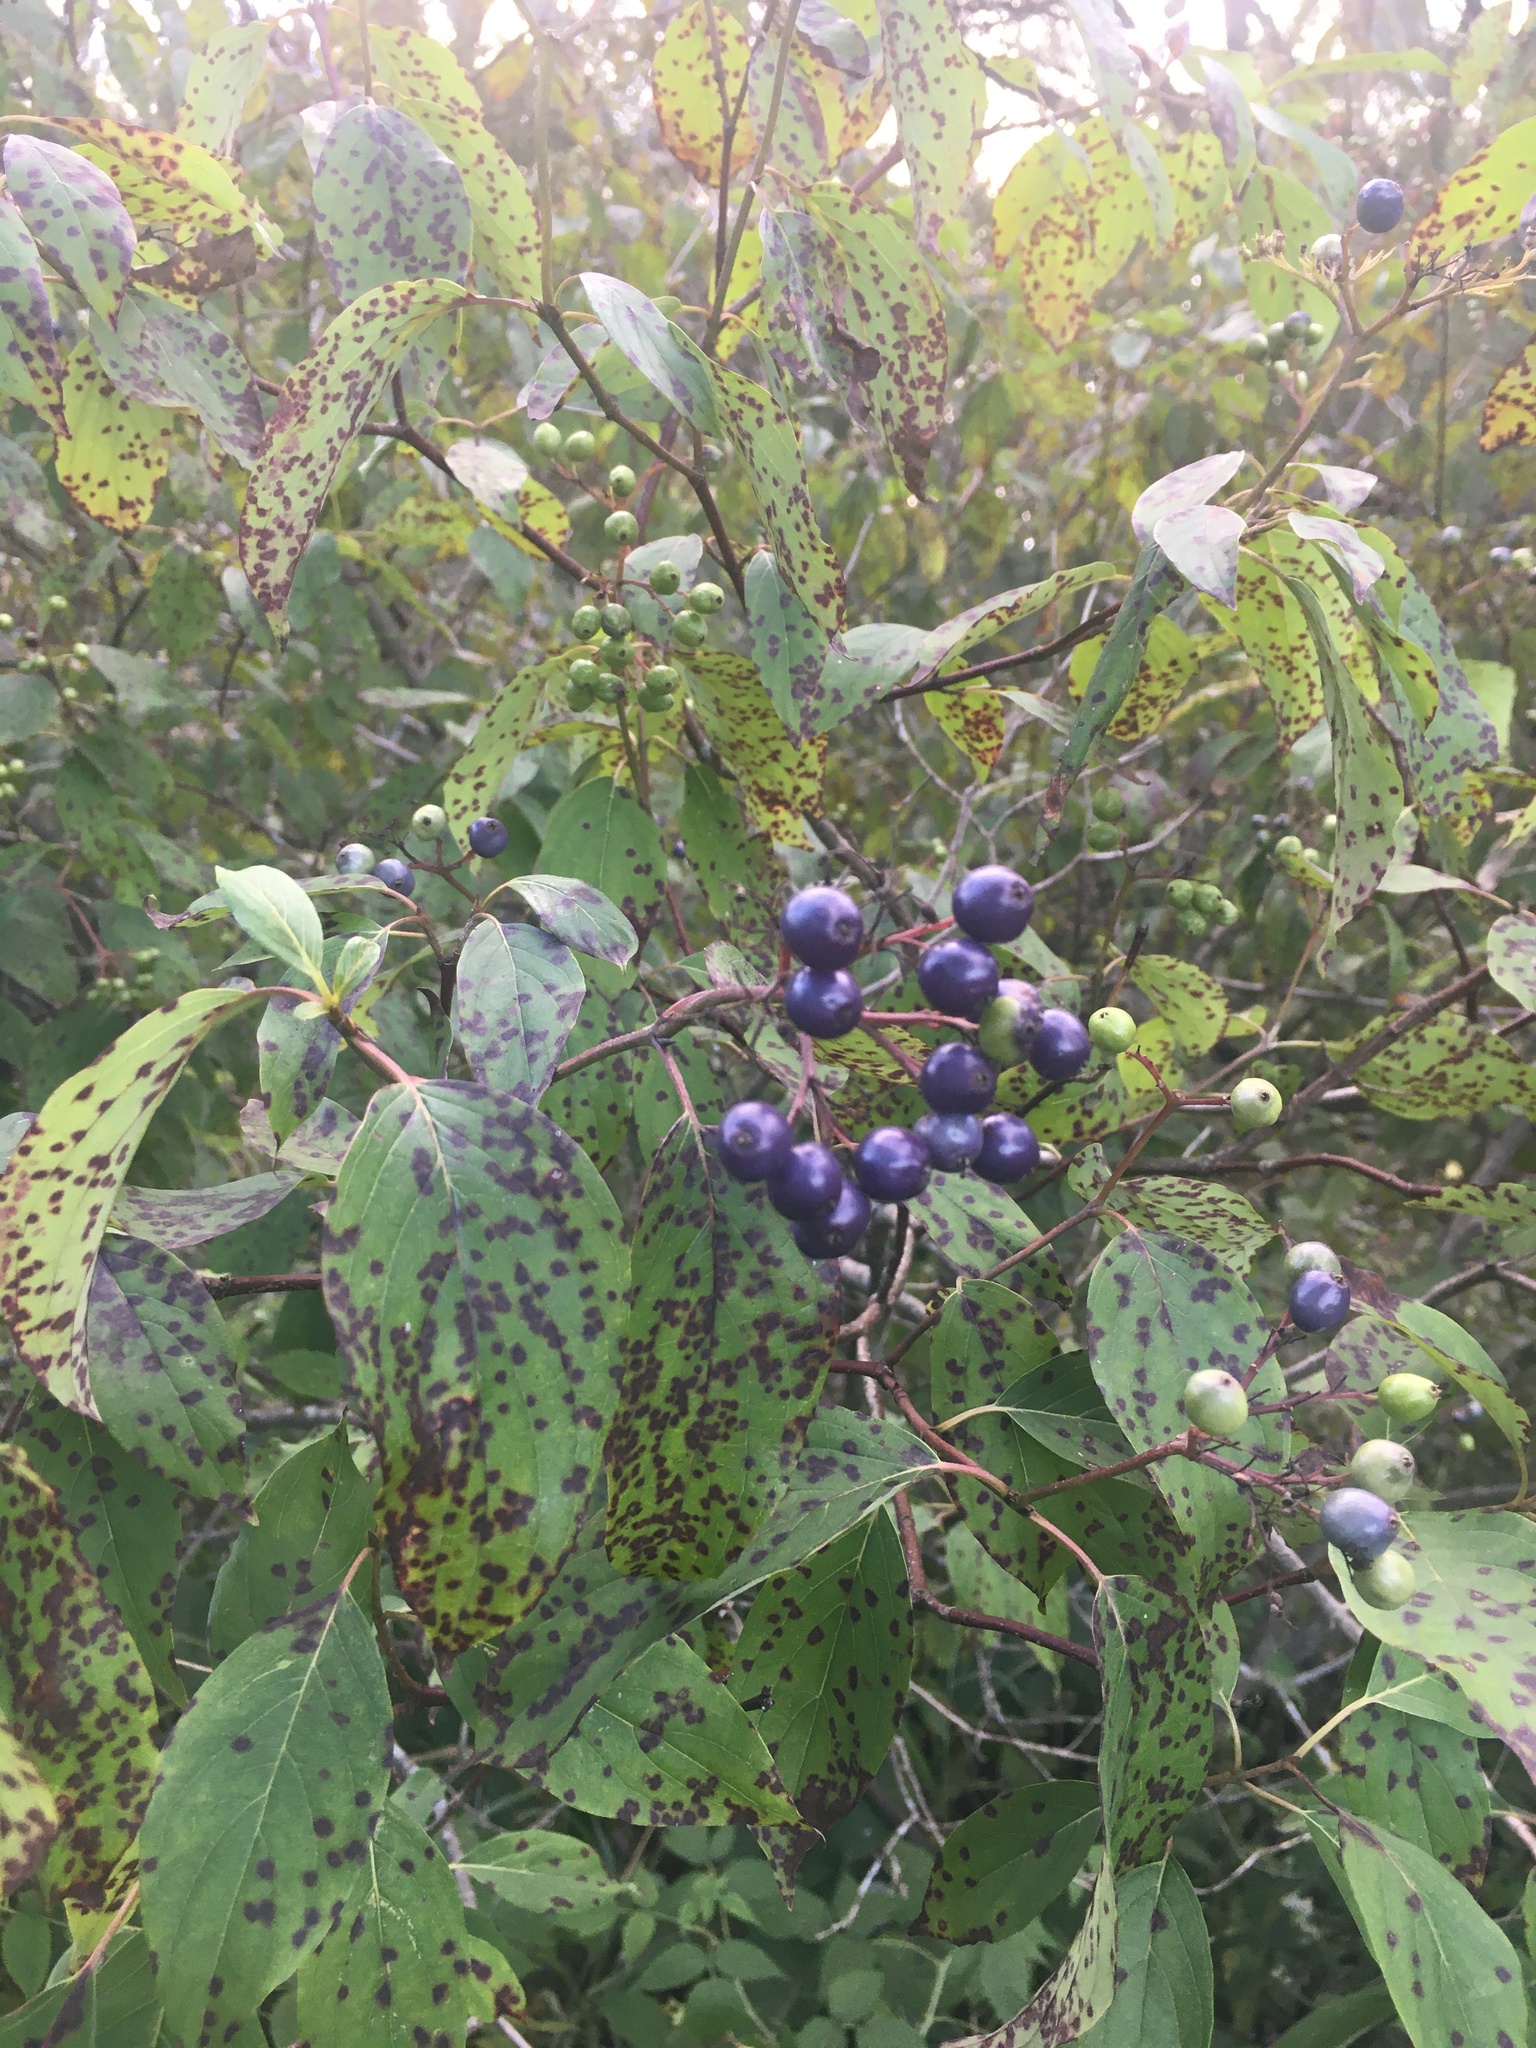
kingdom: Plantae
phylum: Tracheophyta
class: Magnoliopsida
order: Cornales
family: Cornaceae
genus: Cornus
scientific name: Cornus amomum
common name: Silky dogwood
